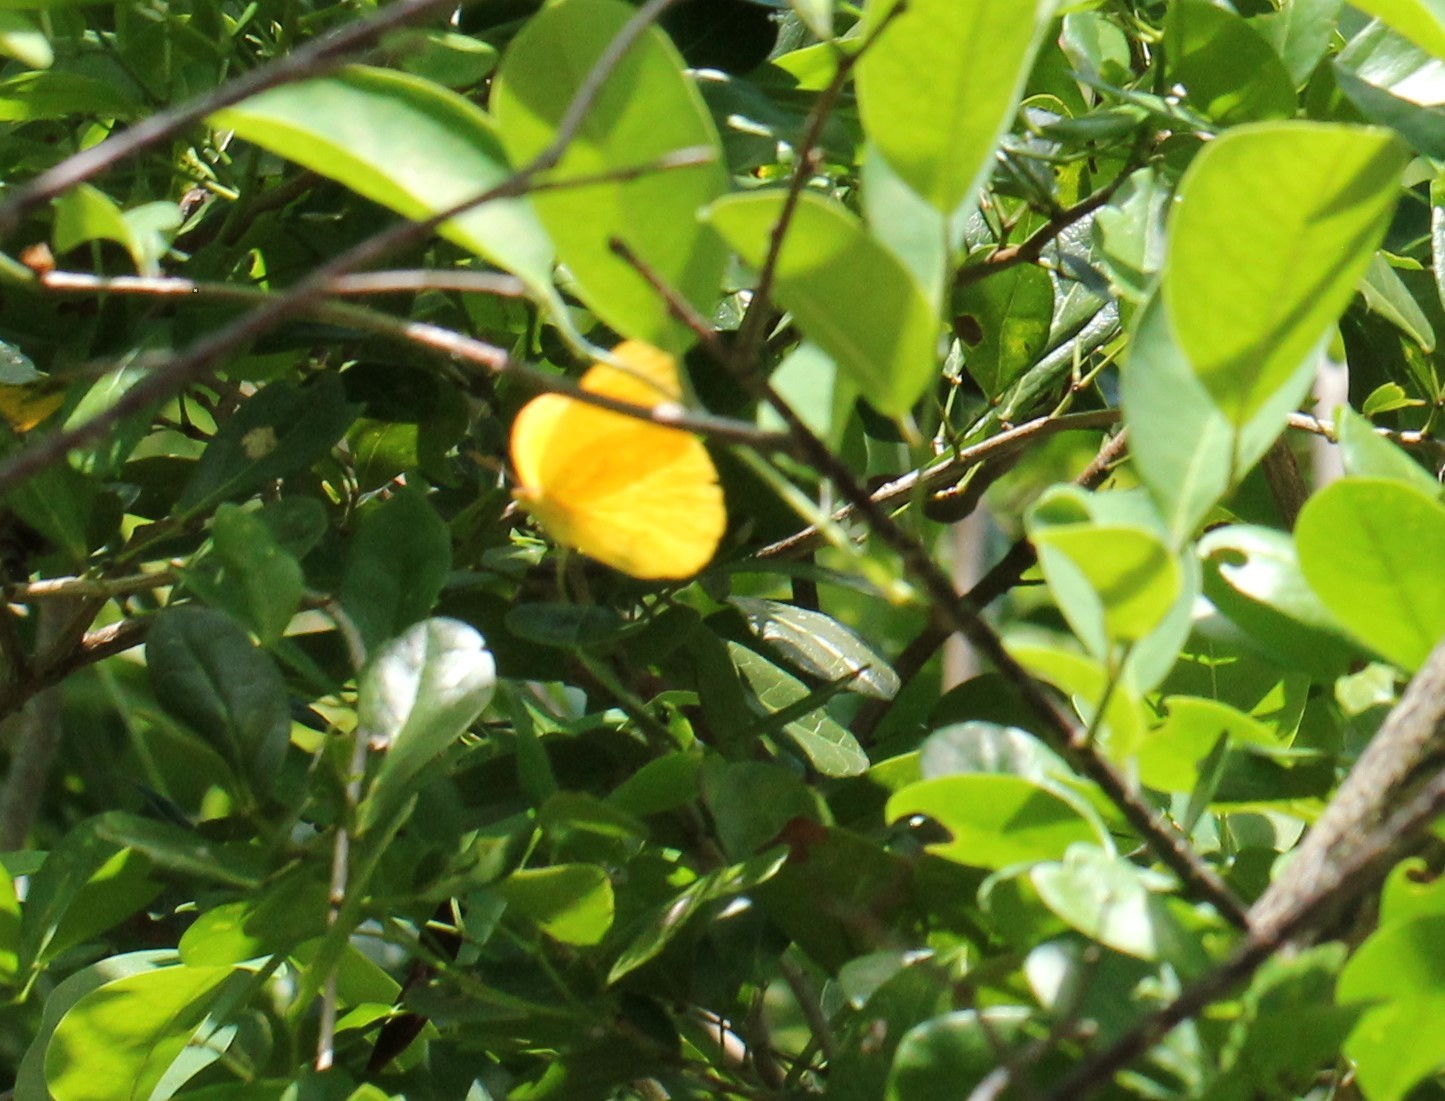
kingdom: Animalia
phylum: Arthropoda
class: Insecta
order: Lepidoptera
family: Pieridae
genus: Phoebis
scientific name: Phoebis agarithe
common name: Large orange sulphur
